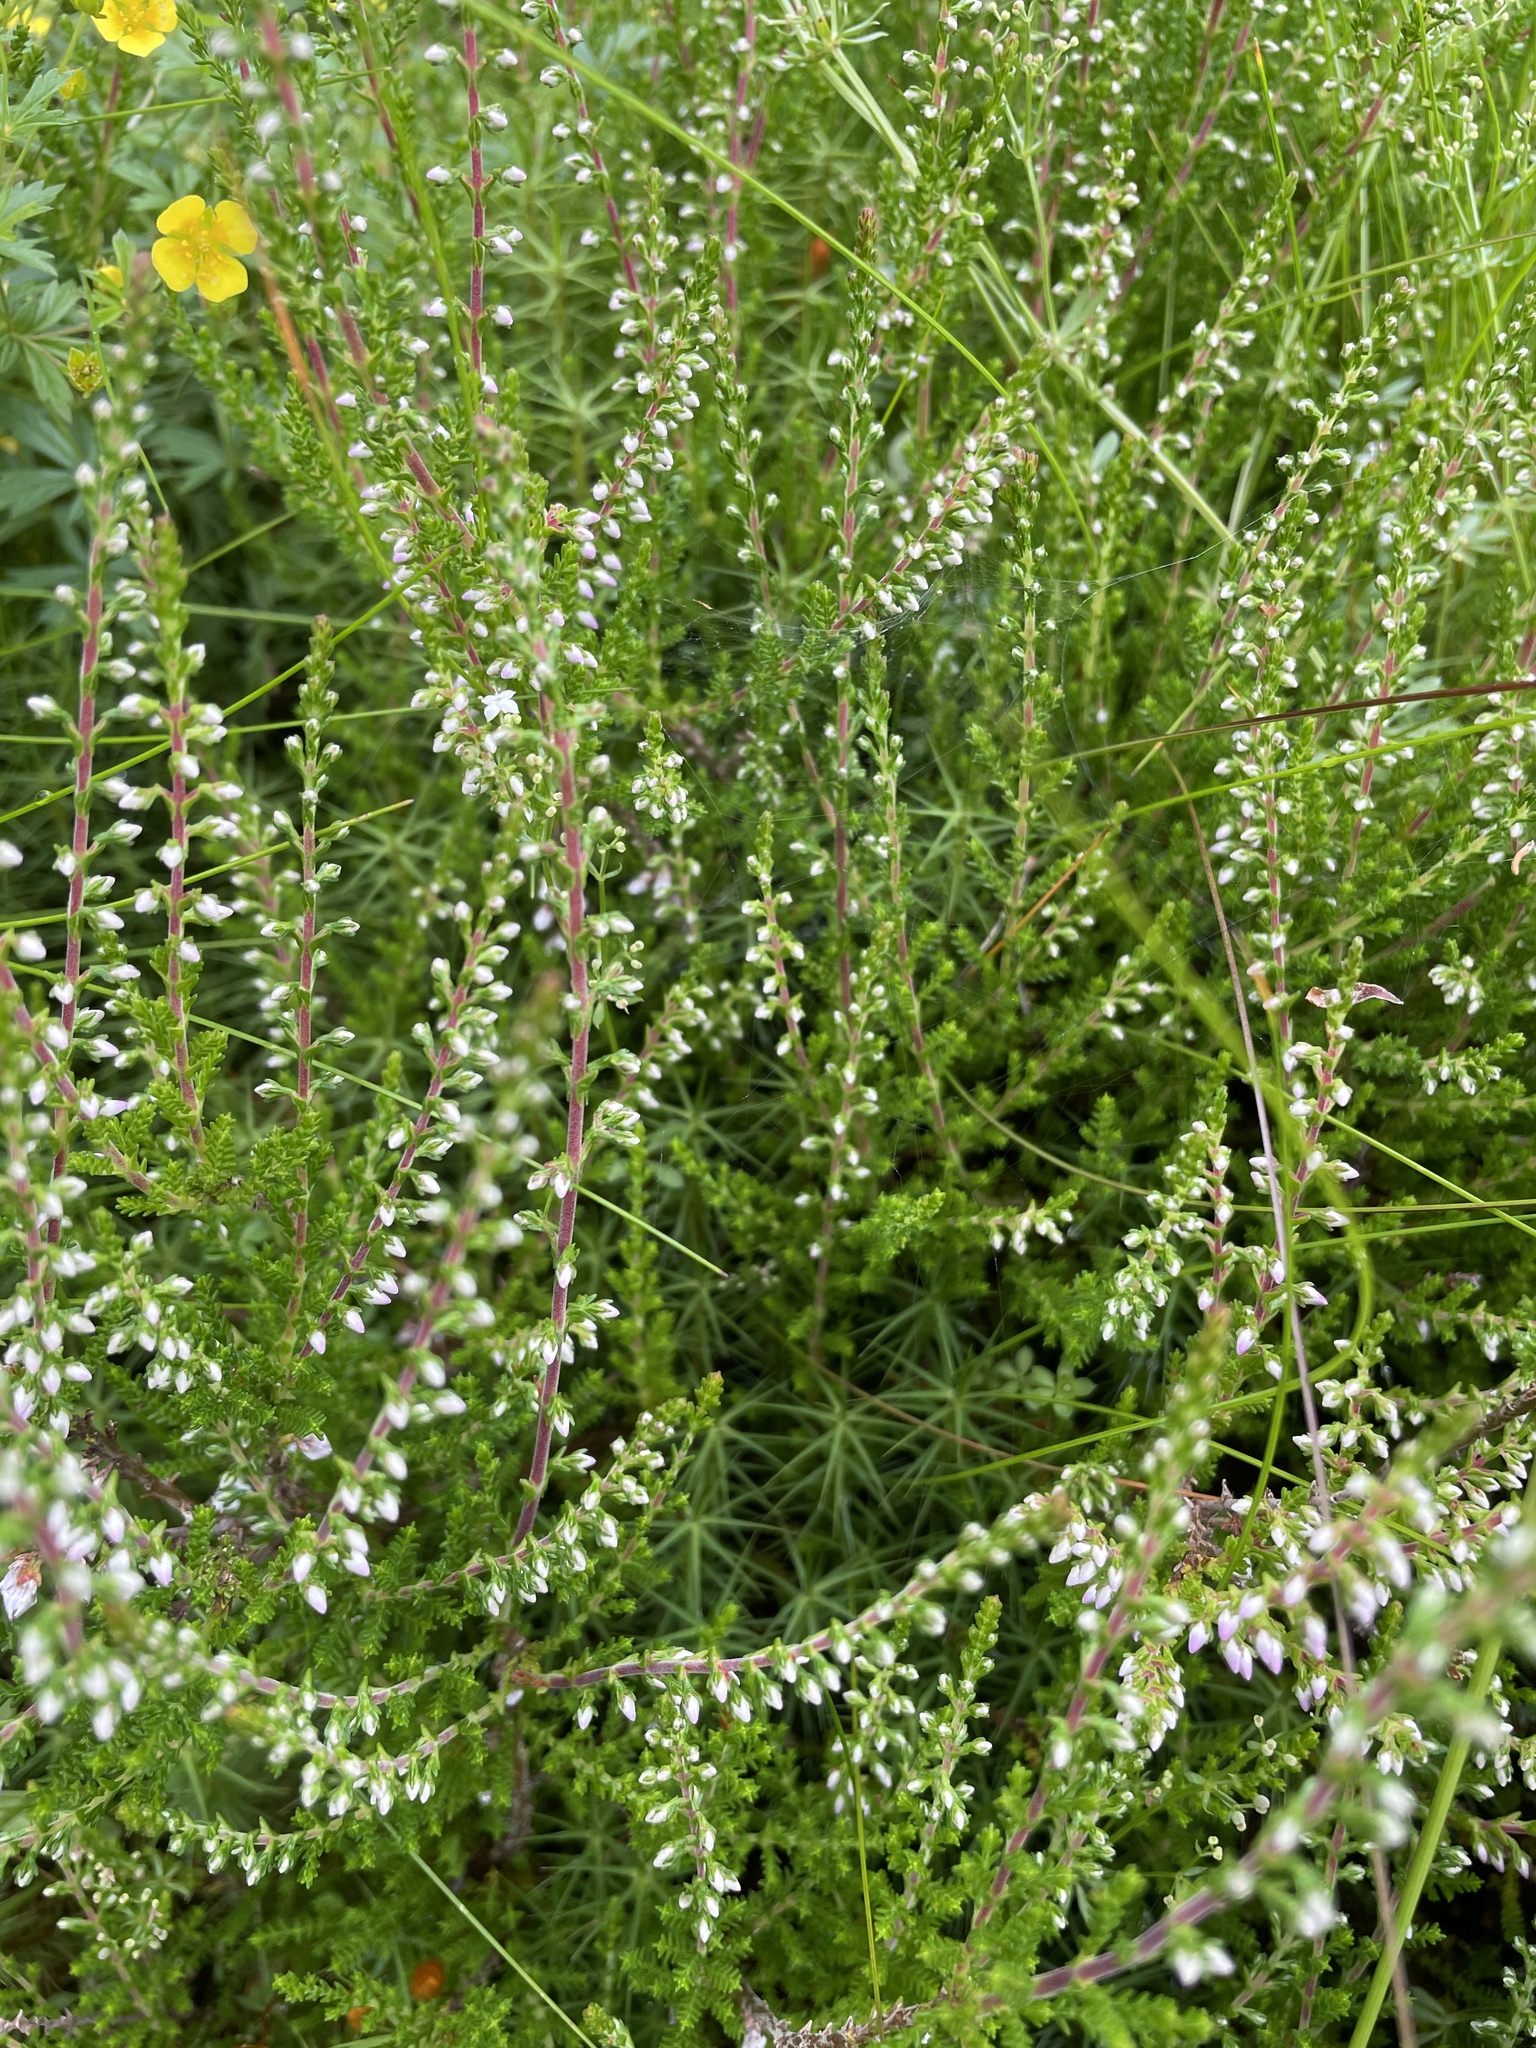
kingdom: Plantae
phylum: Tracheophyta
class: Magnoliopsida
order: Ericales
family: Ericaceae
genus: Calluna
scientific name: Calluna vulgaris
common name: Heather
